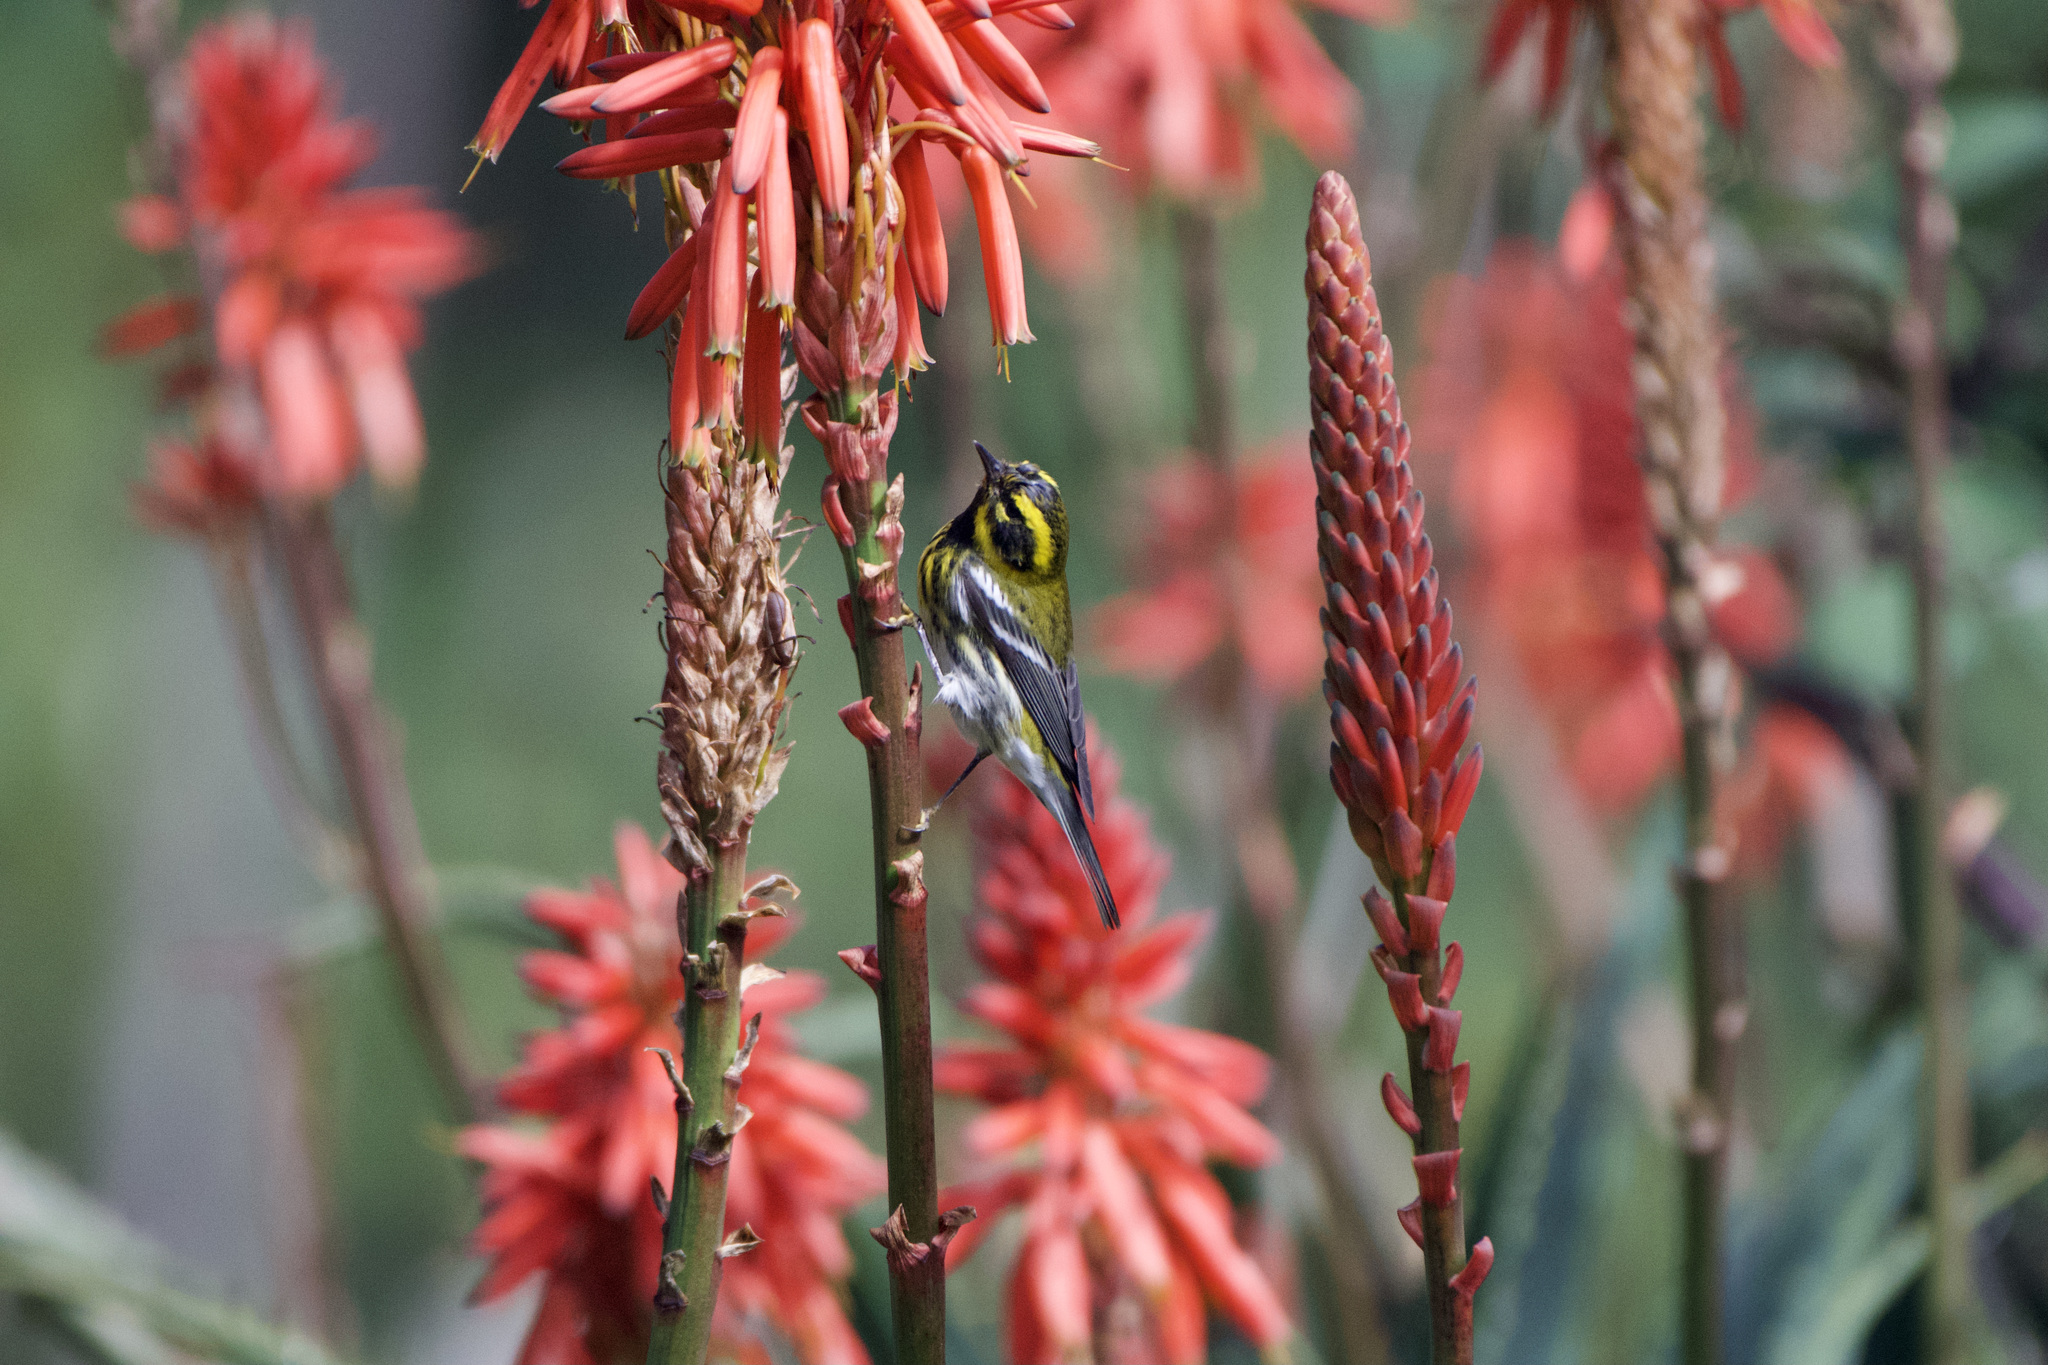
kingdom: Animalia
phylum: Chordata
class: Aves
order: Passeriformes
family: Parulidae
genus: Setophaga
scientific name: Setophaga townsendi
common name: Townsend's warbler
